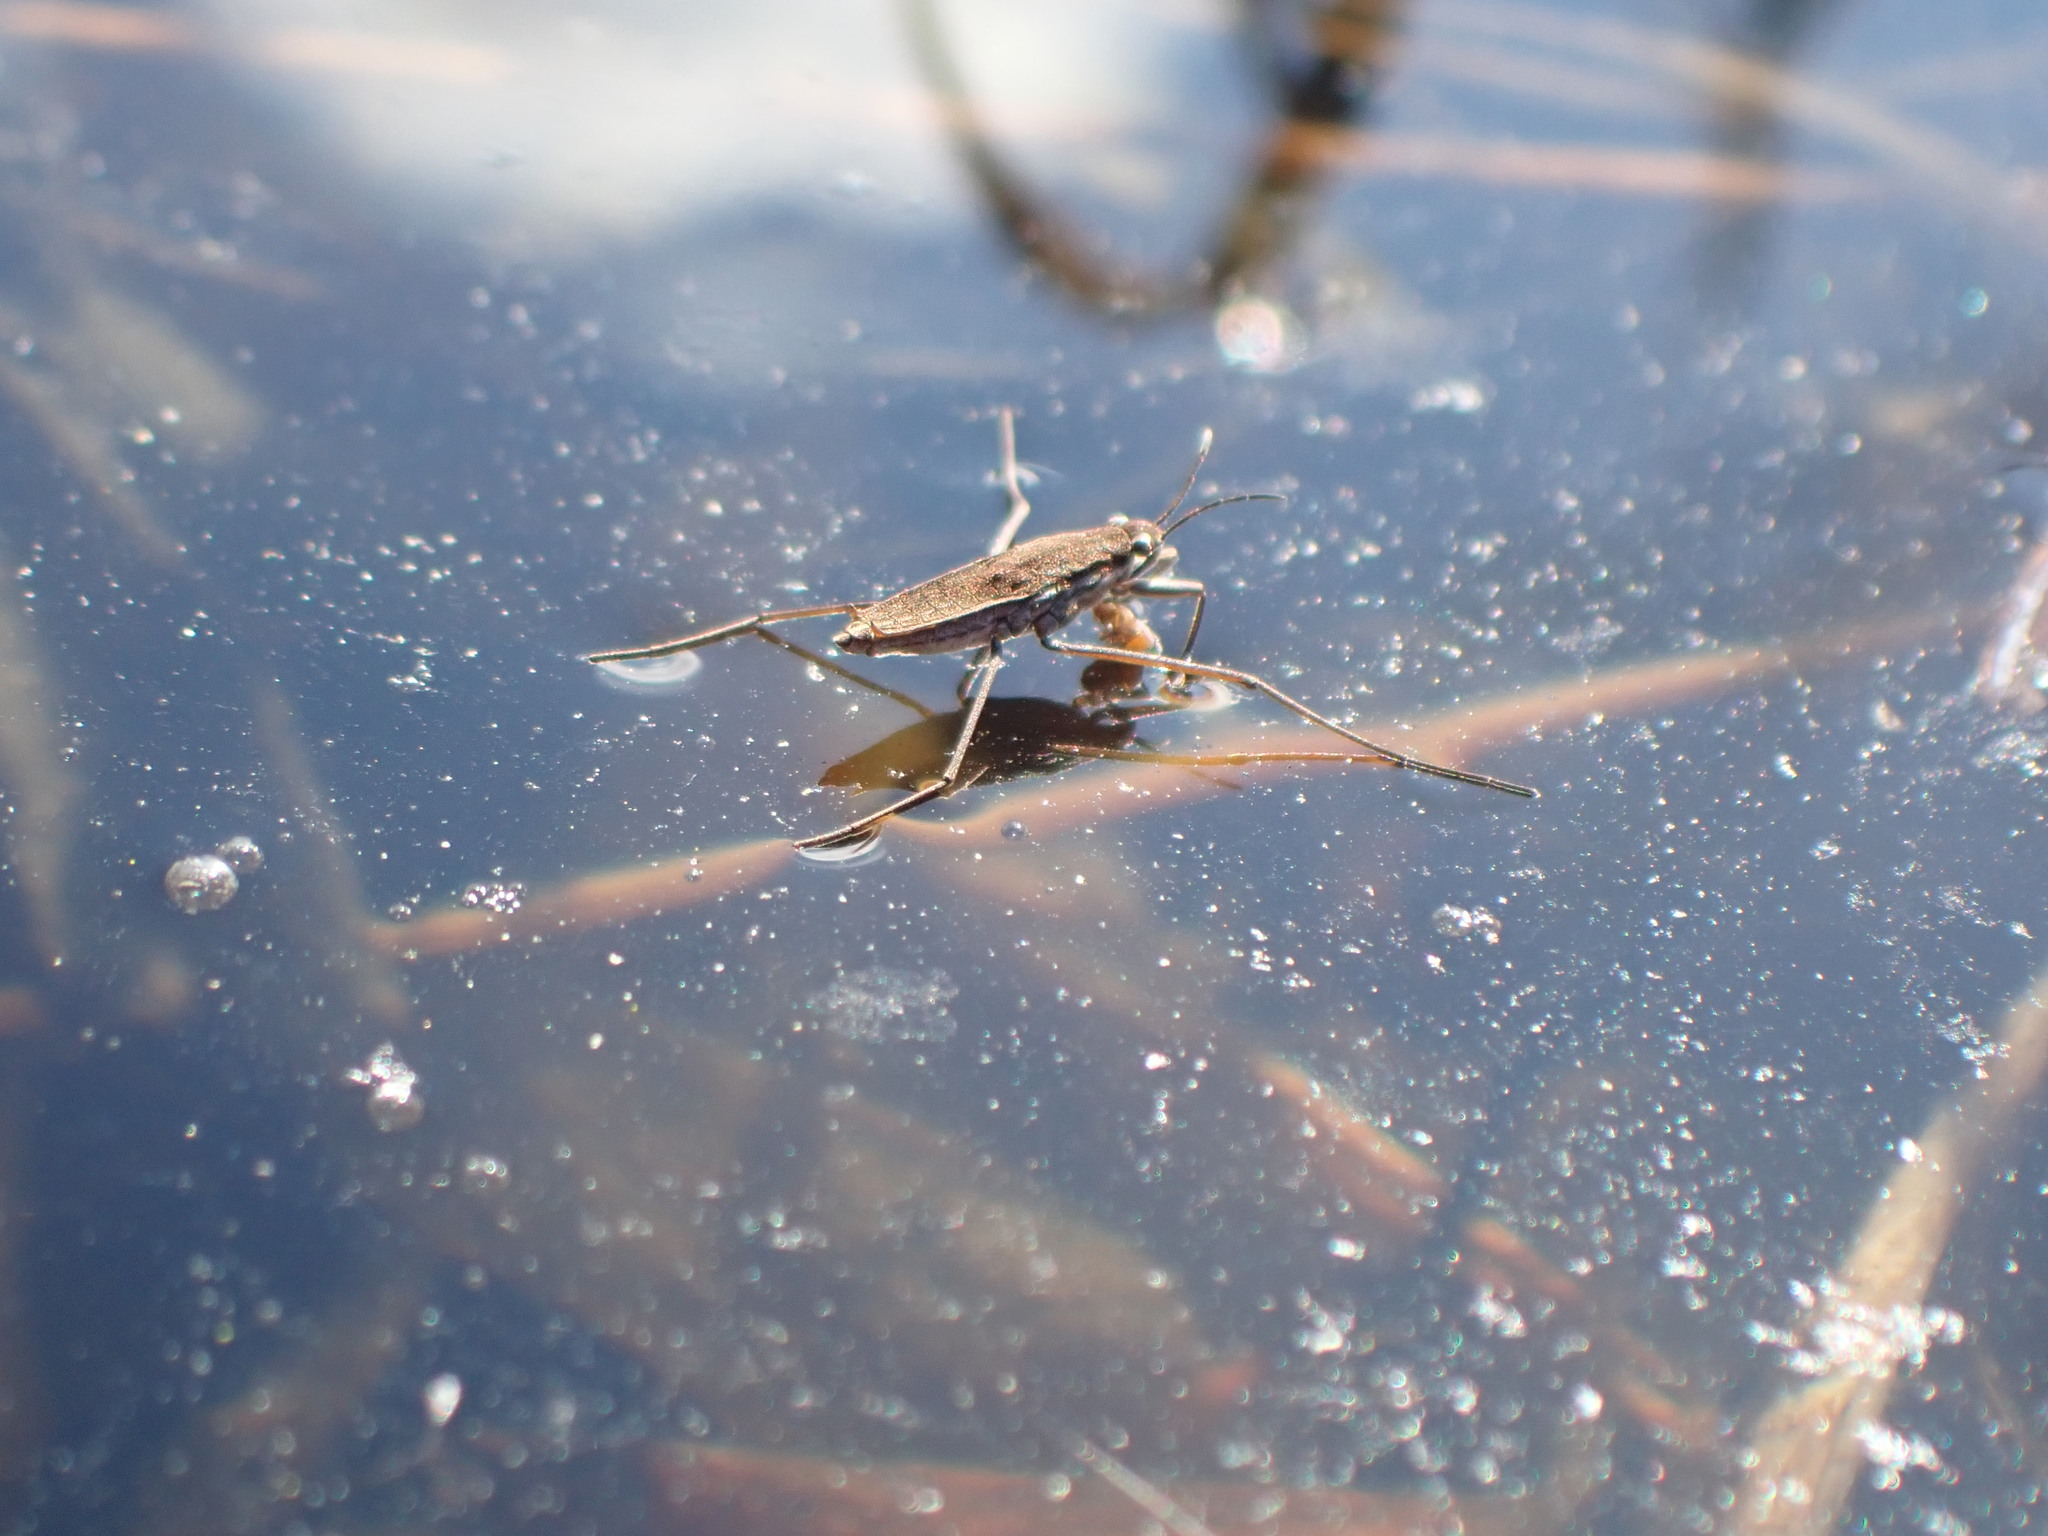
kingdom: Animalia
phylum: Arthropoda
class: Insecta
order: Hemiptera
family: Gerridae
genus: Gerris
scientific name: Gerris
